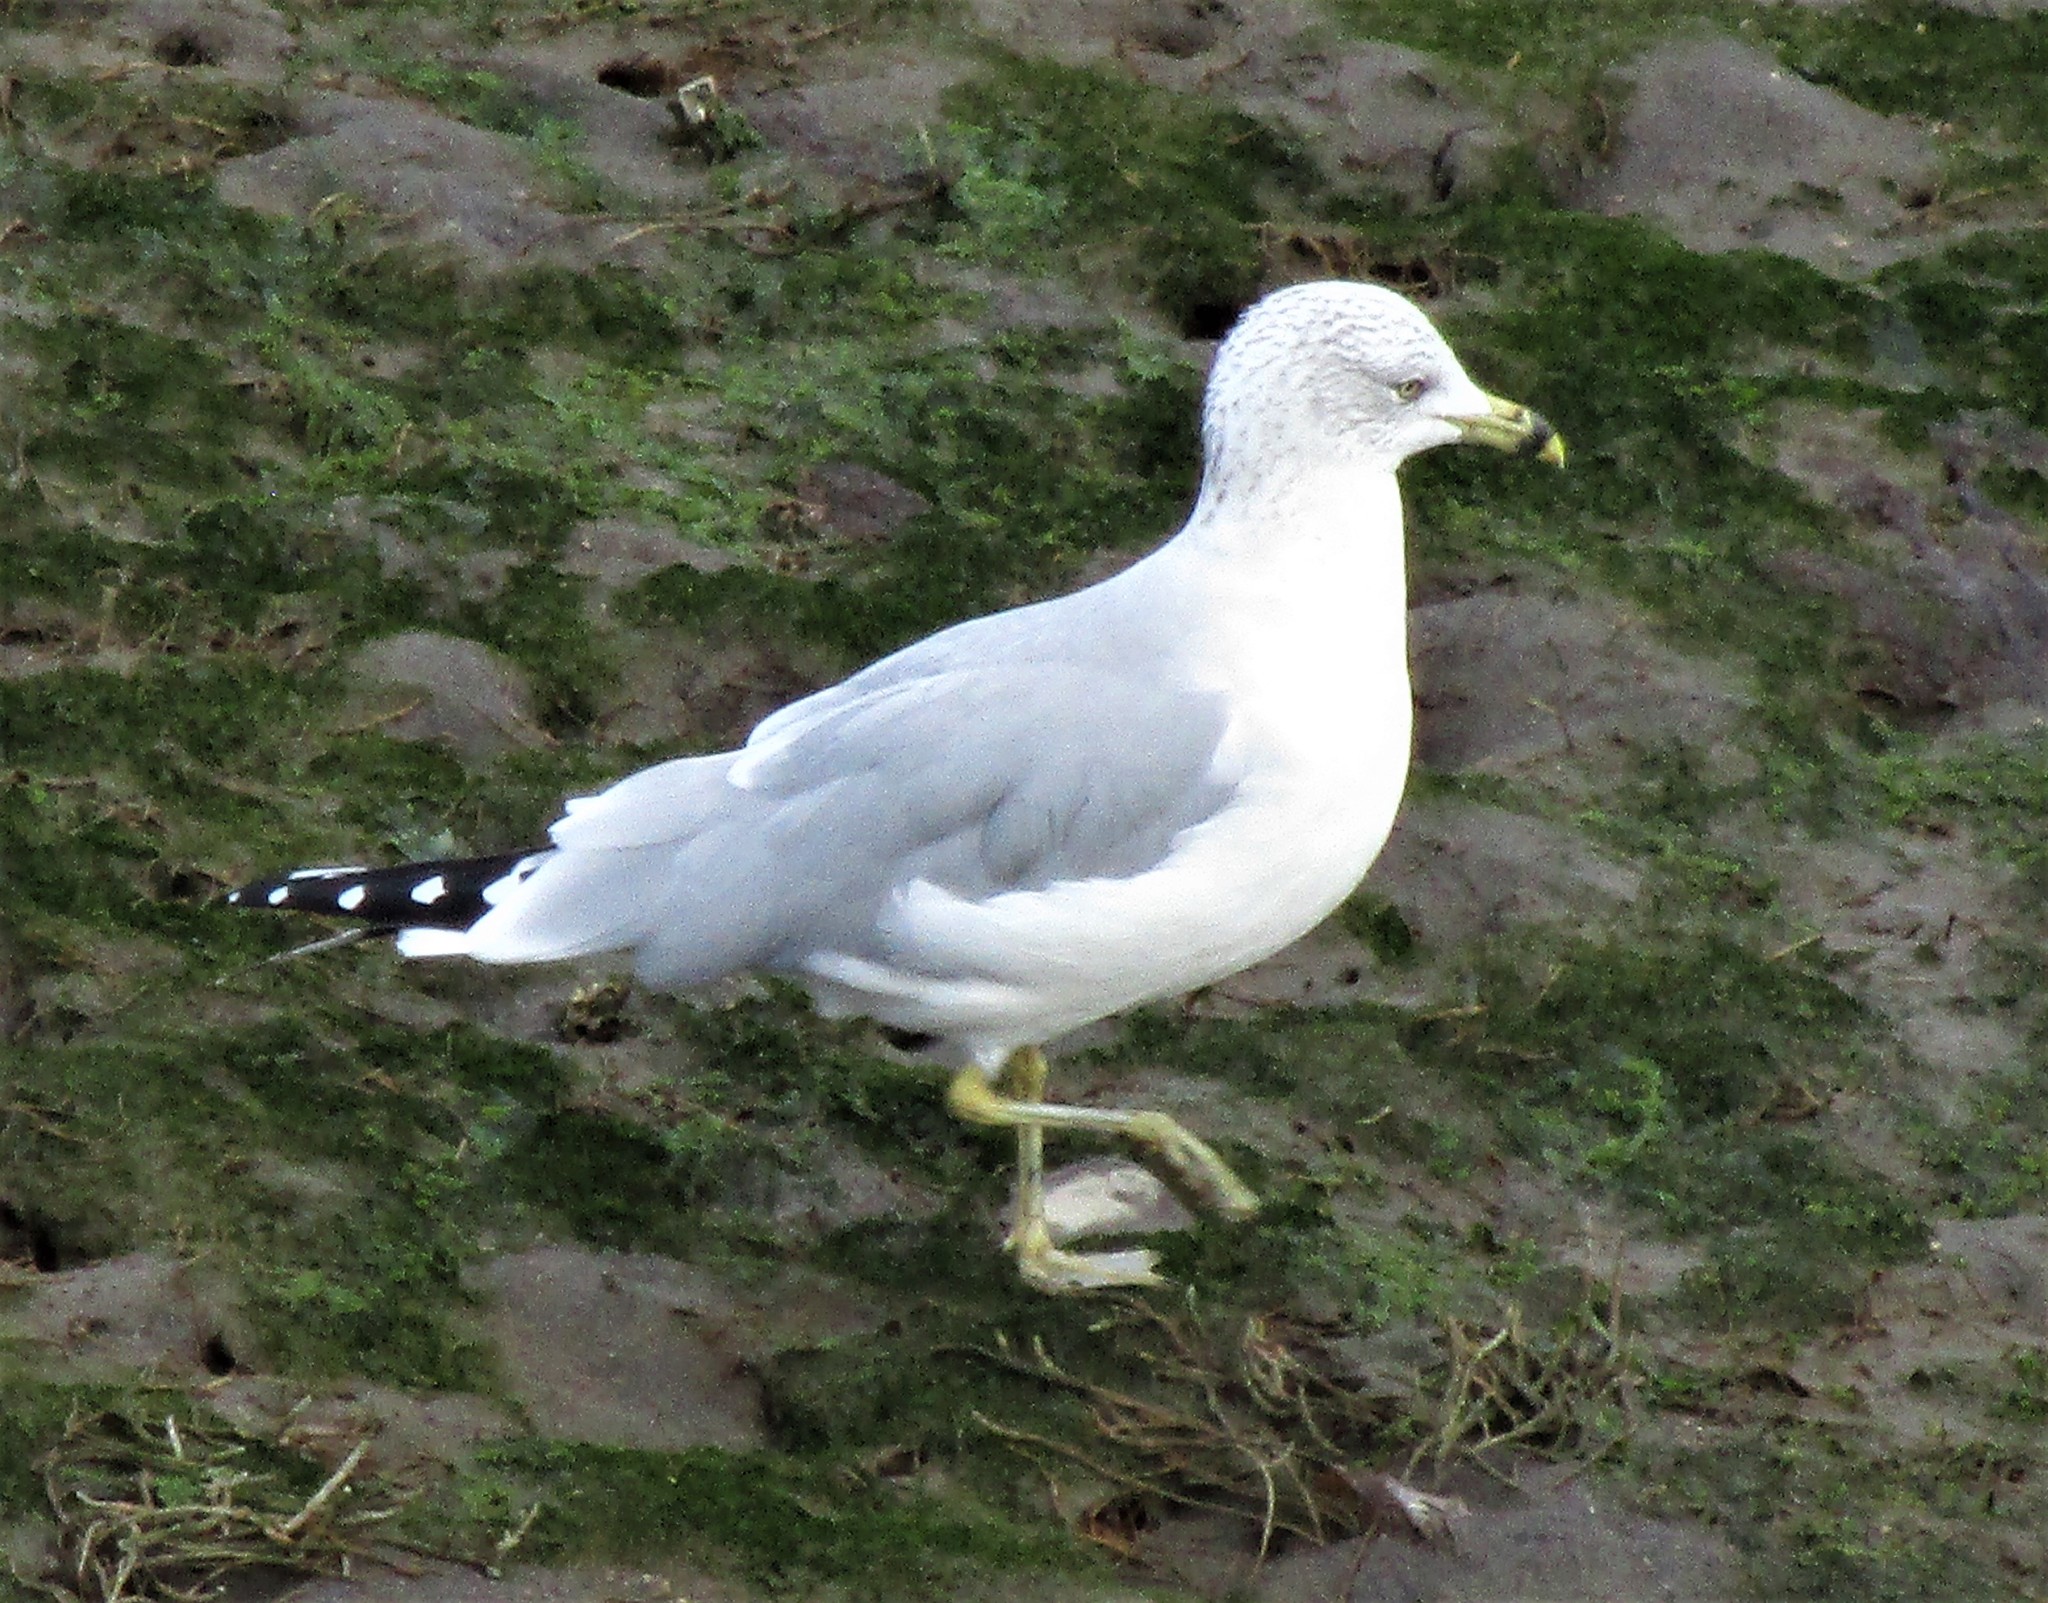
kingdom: Animalia
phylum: Chordata
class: Aves
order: Charadriiformes
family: Laridae
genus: Larus
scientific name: Larus delawarensis
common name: Ring-billed gull
